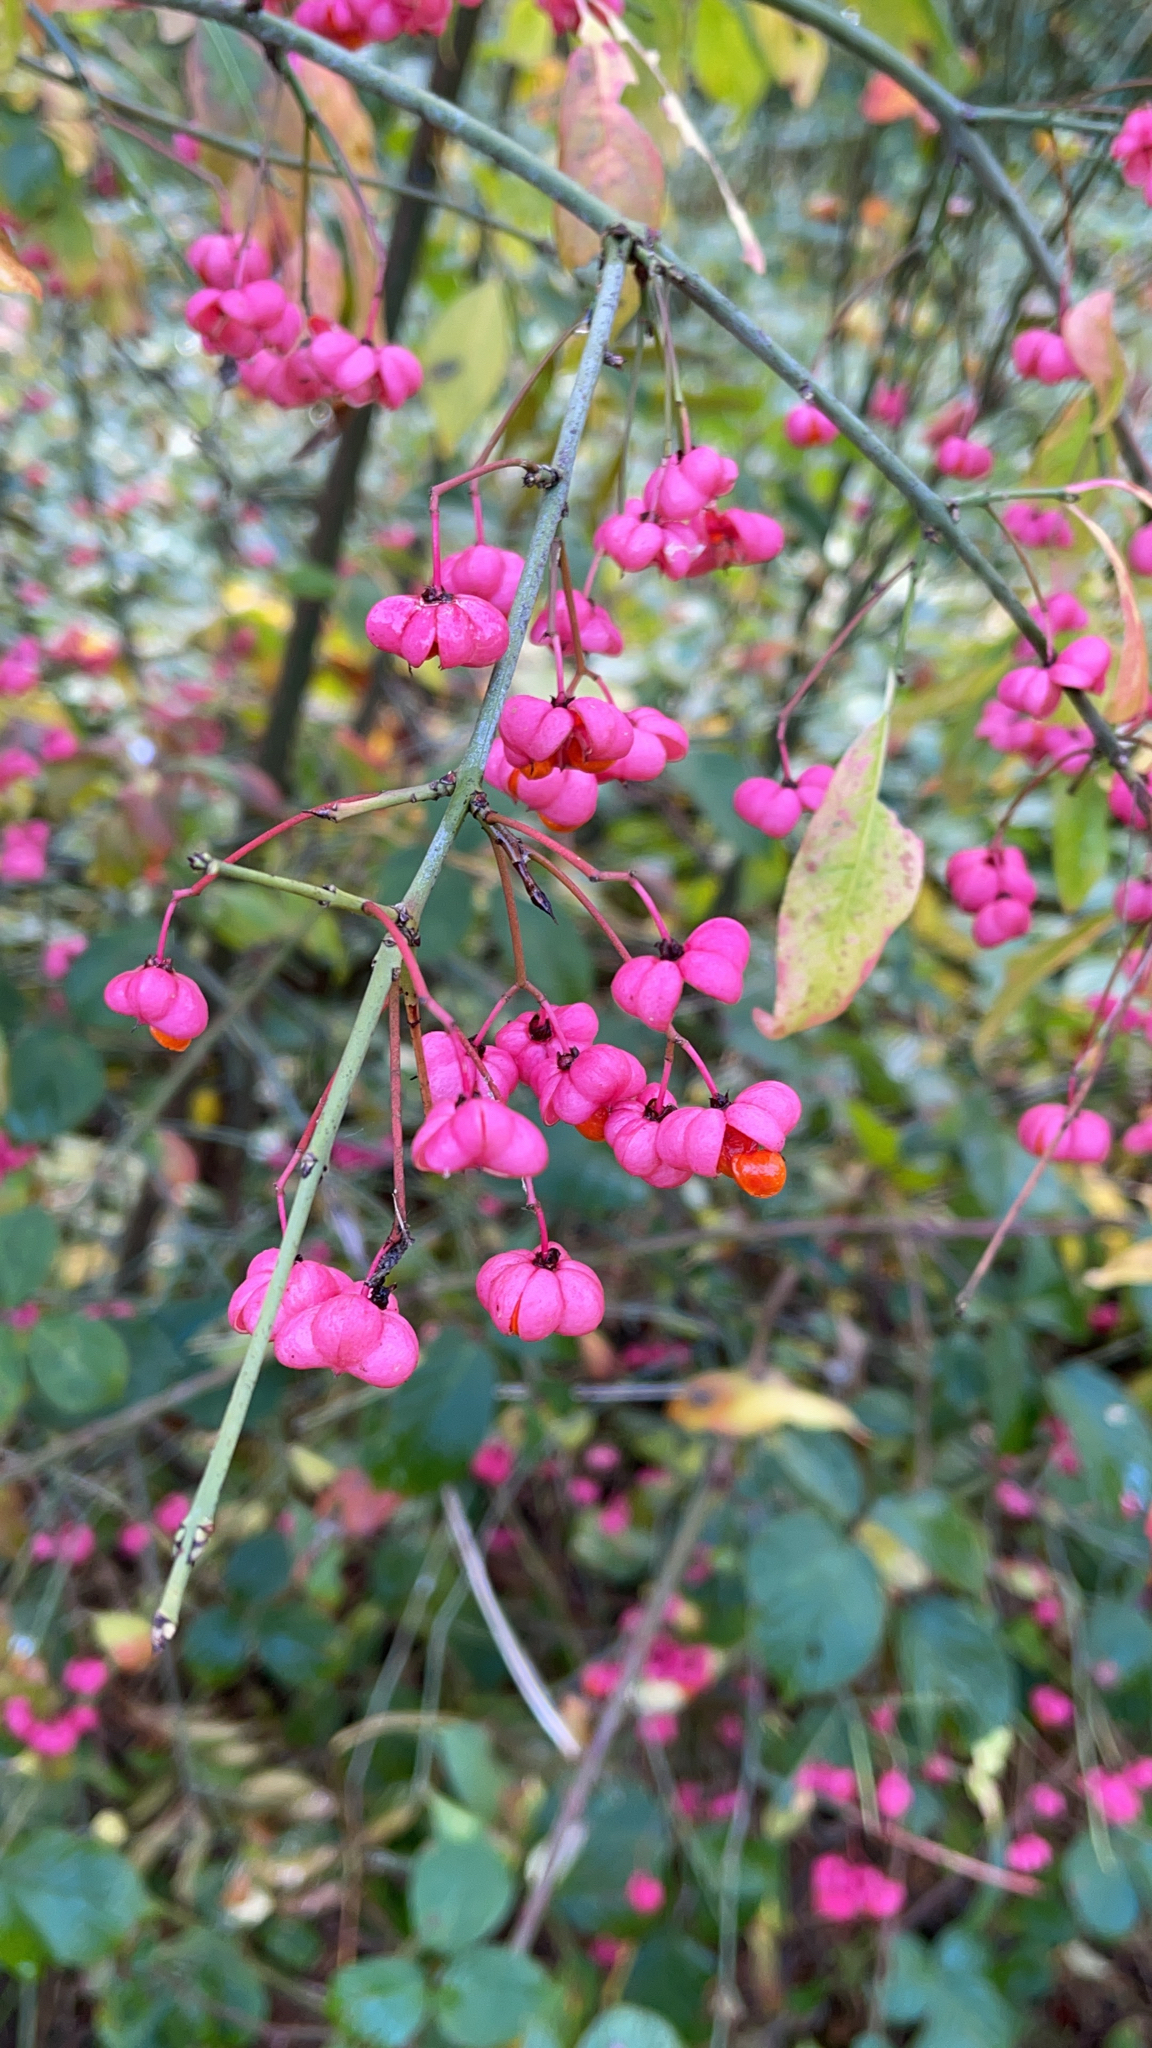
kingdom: Plantae
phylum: Tracheophyta
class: Magnoliopsida
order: Celastrales
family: Celastraceae
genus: Euonymus
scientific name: Euonymus europaeus
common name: Spindle
